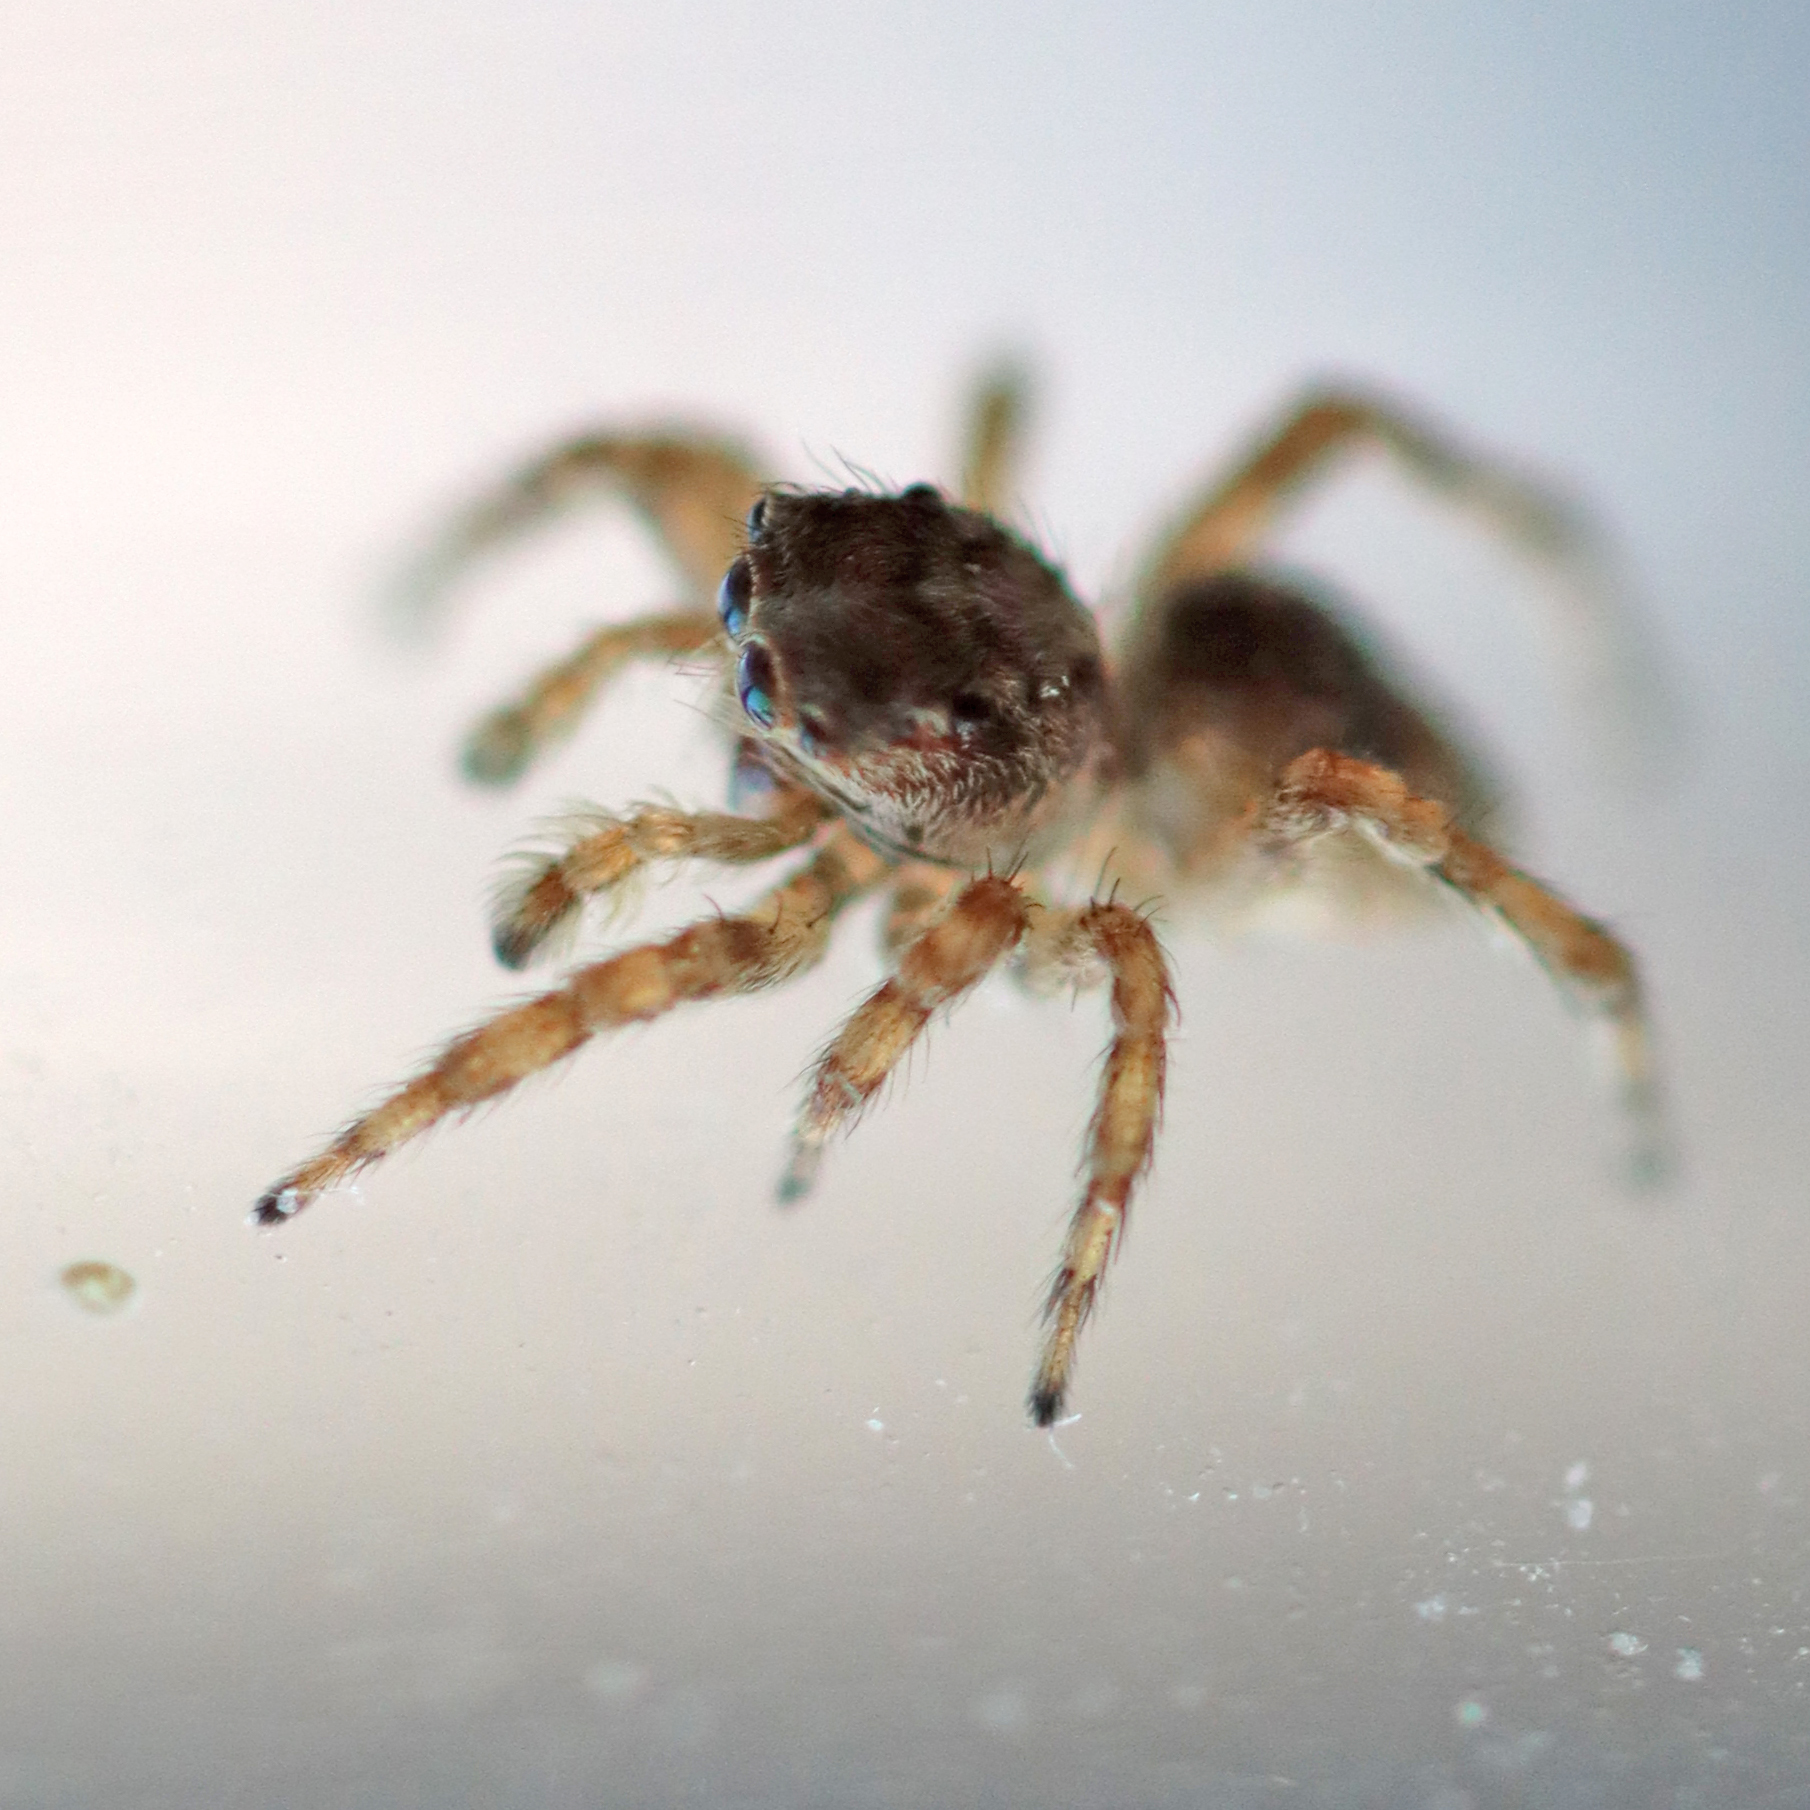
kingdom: Animalia
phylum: Arthropoda
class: Arachnida
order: Araneae
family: Salticidae
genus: Attulus
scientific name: Attulus fasciger
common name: Asiatic wall jumping spider
